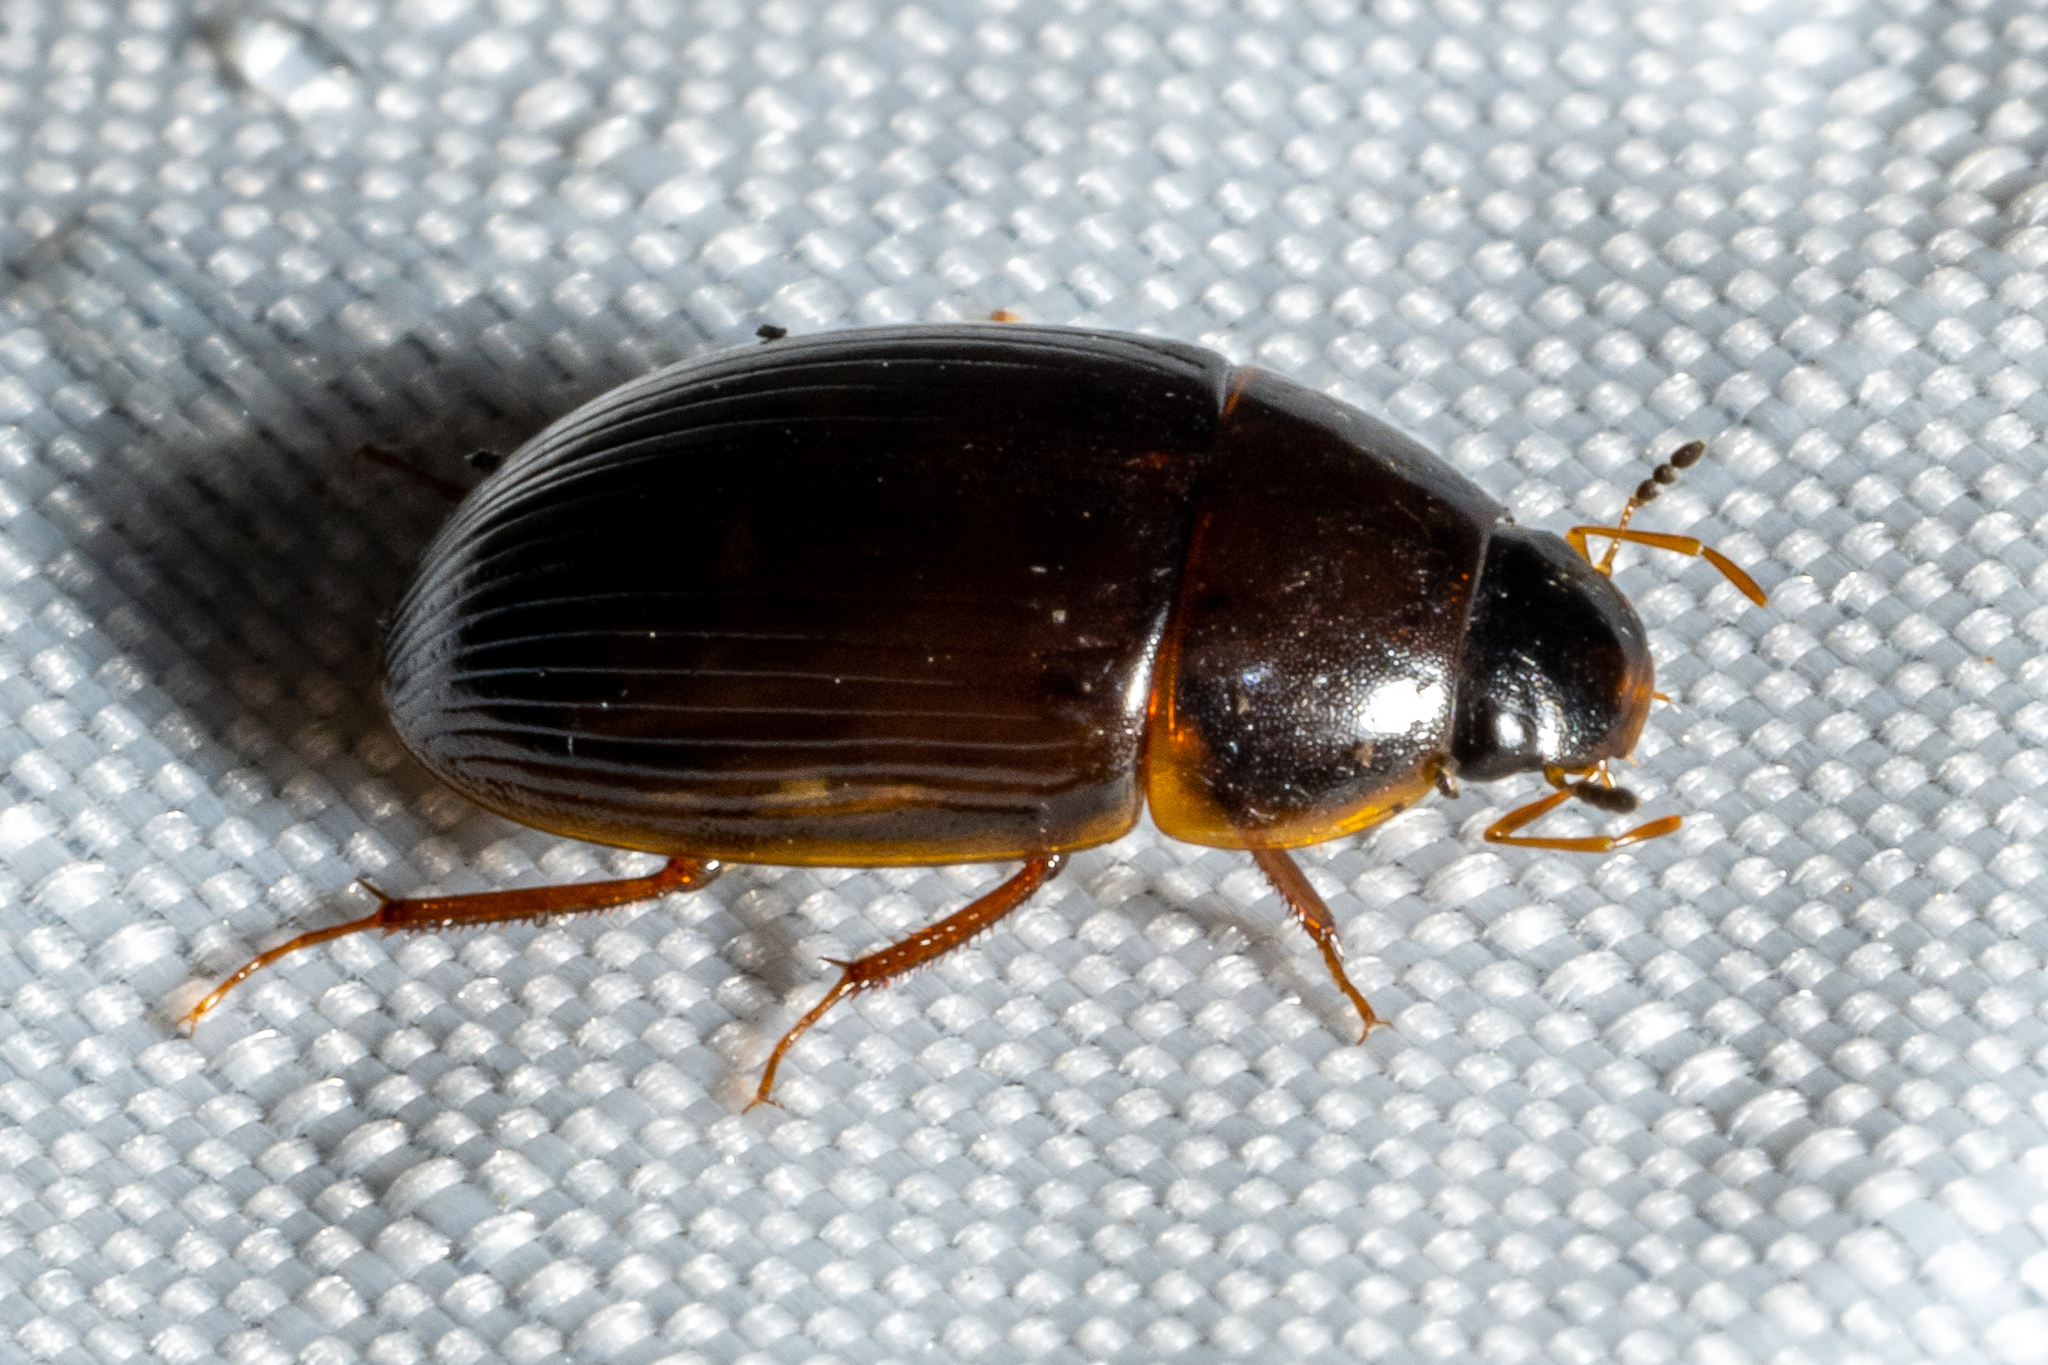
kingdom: Animalia
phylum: Arthropoda
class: Insecta
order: Coleoptera
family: Hydrophilidae
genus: Cymbiodyta
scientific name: Cymbiodyta bifida
